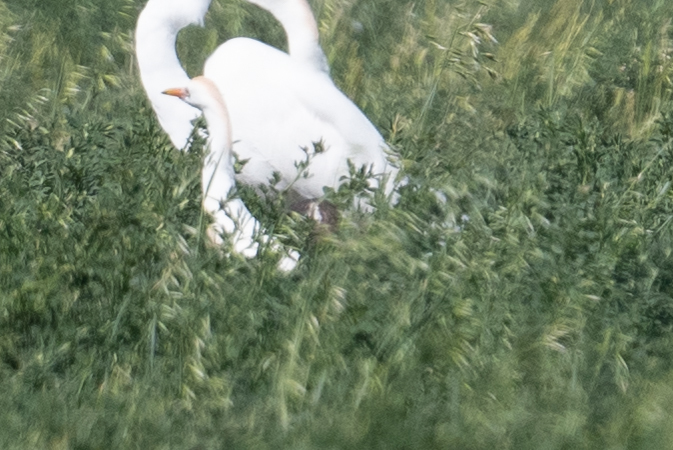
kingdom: Animalia
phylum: Chordata
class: Aves
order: Pelecaniformes
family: Ardeidae
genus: Bubulcus
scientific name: Bubulcus ibis
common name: Cattle egret
